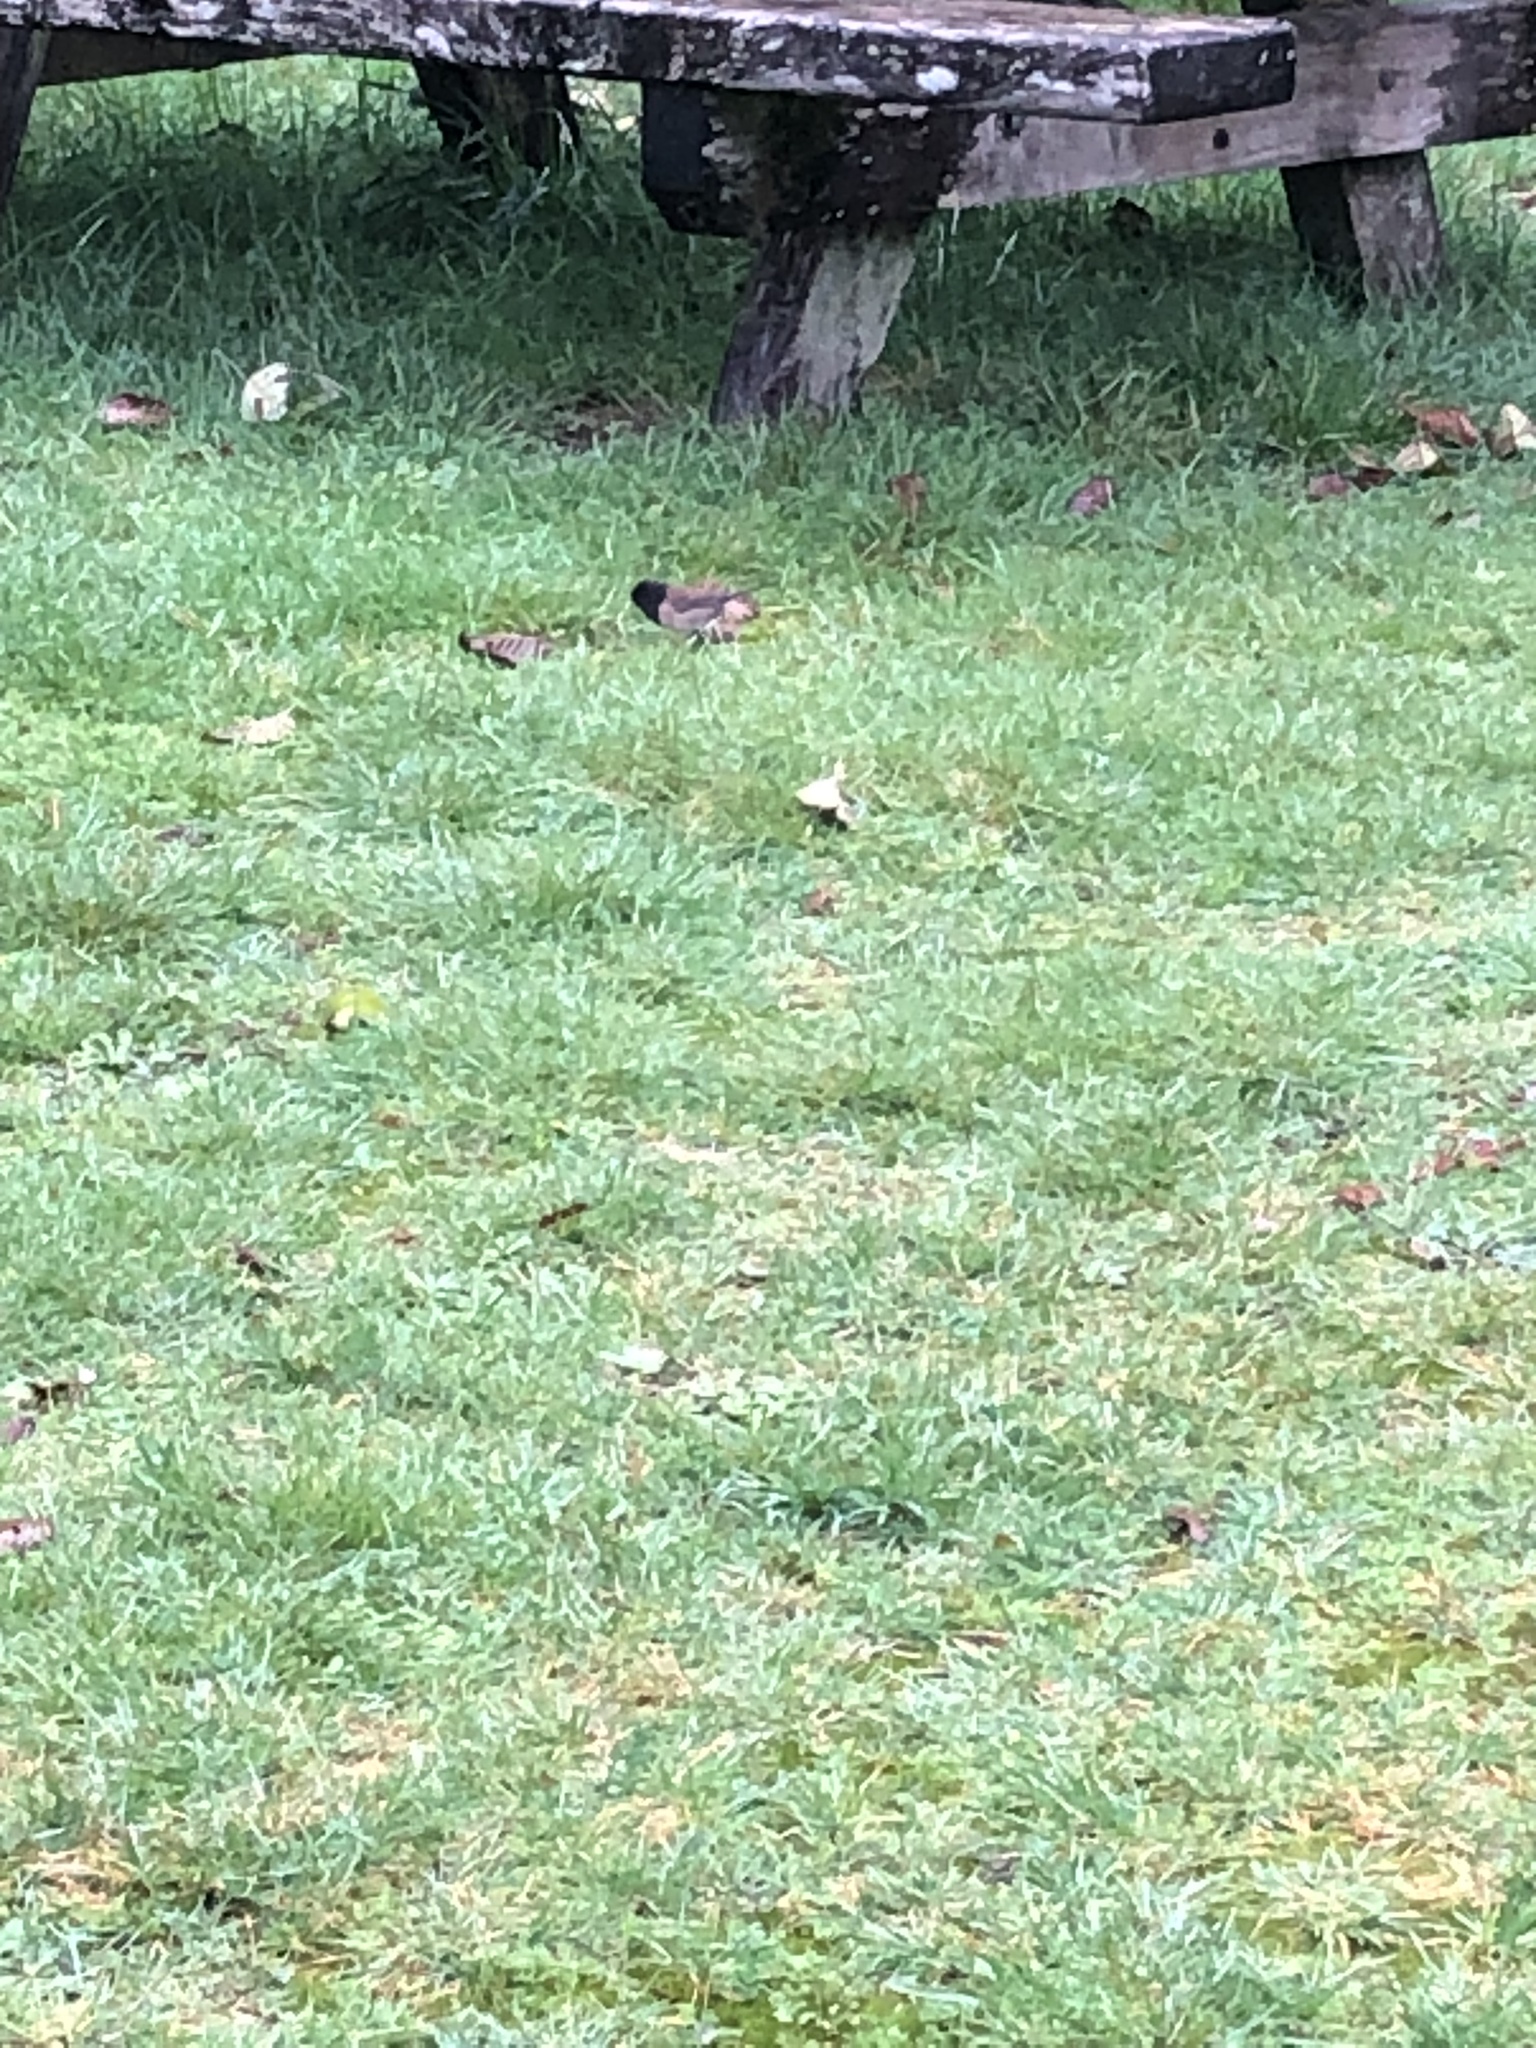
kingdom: Animalia
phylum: Chordata
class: Aves
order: Passeriformes
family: Passerellidae
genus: Junco
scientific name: Junco hyemalis
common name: Dark-eyed junco
